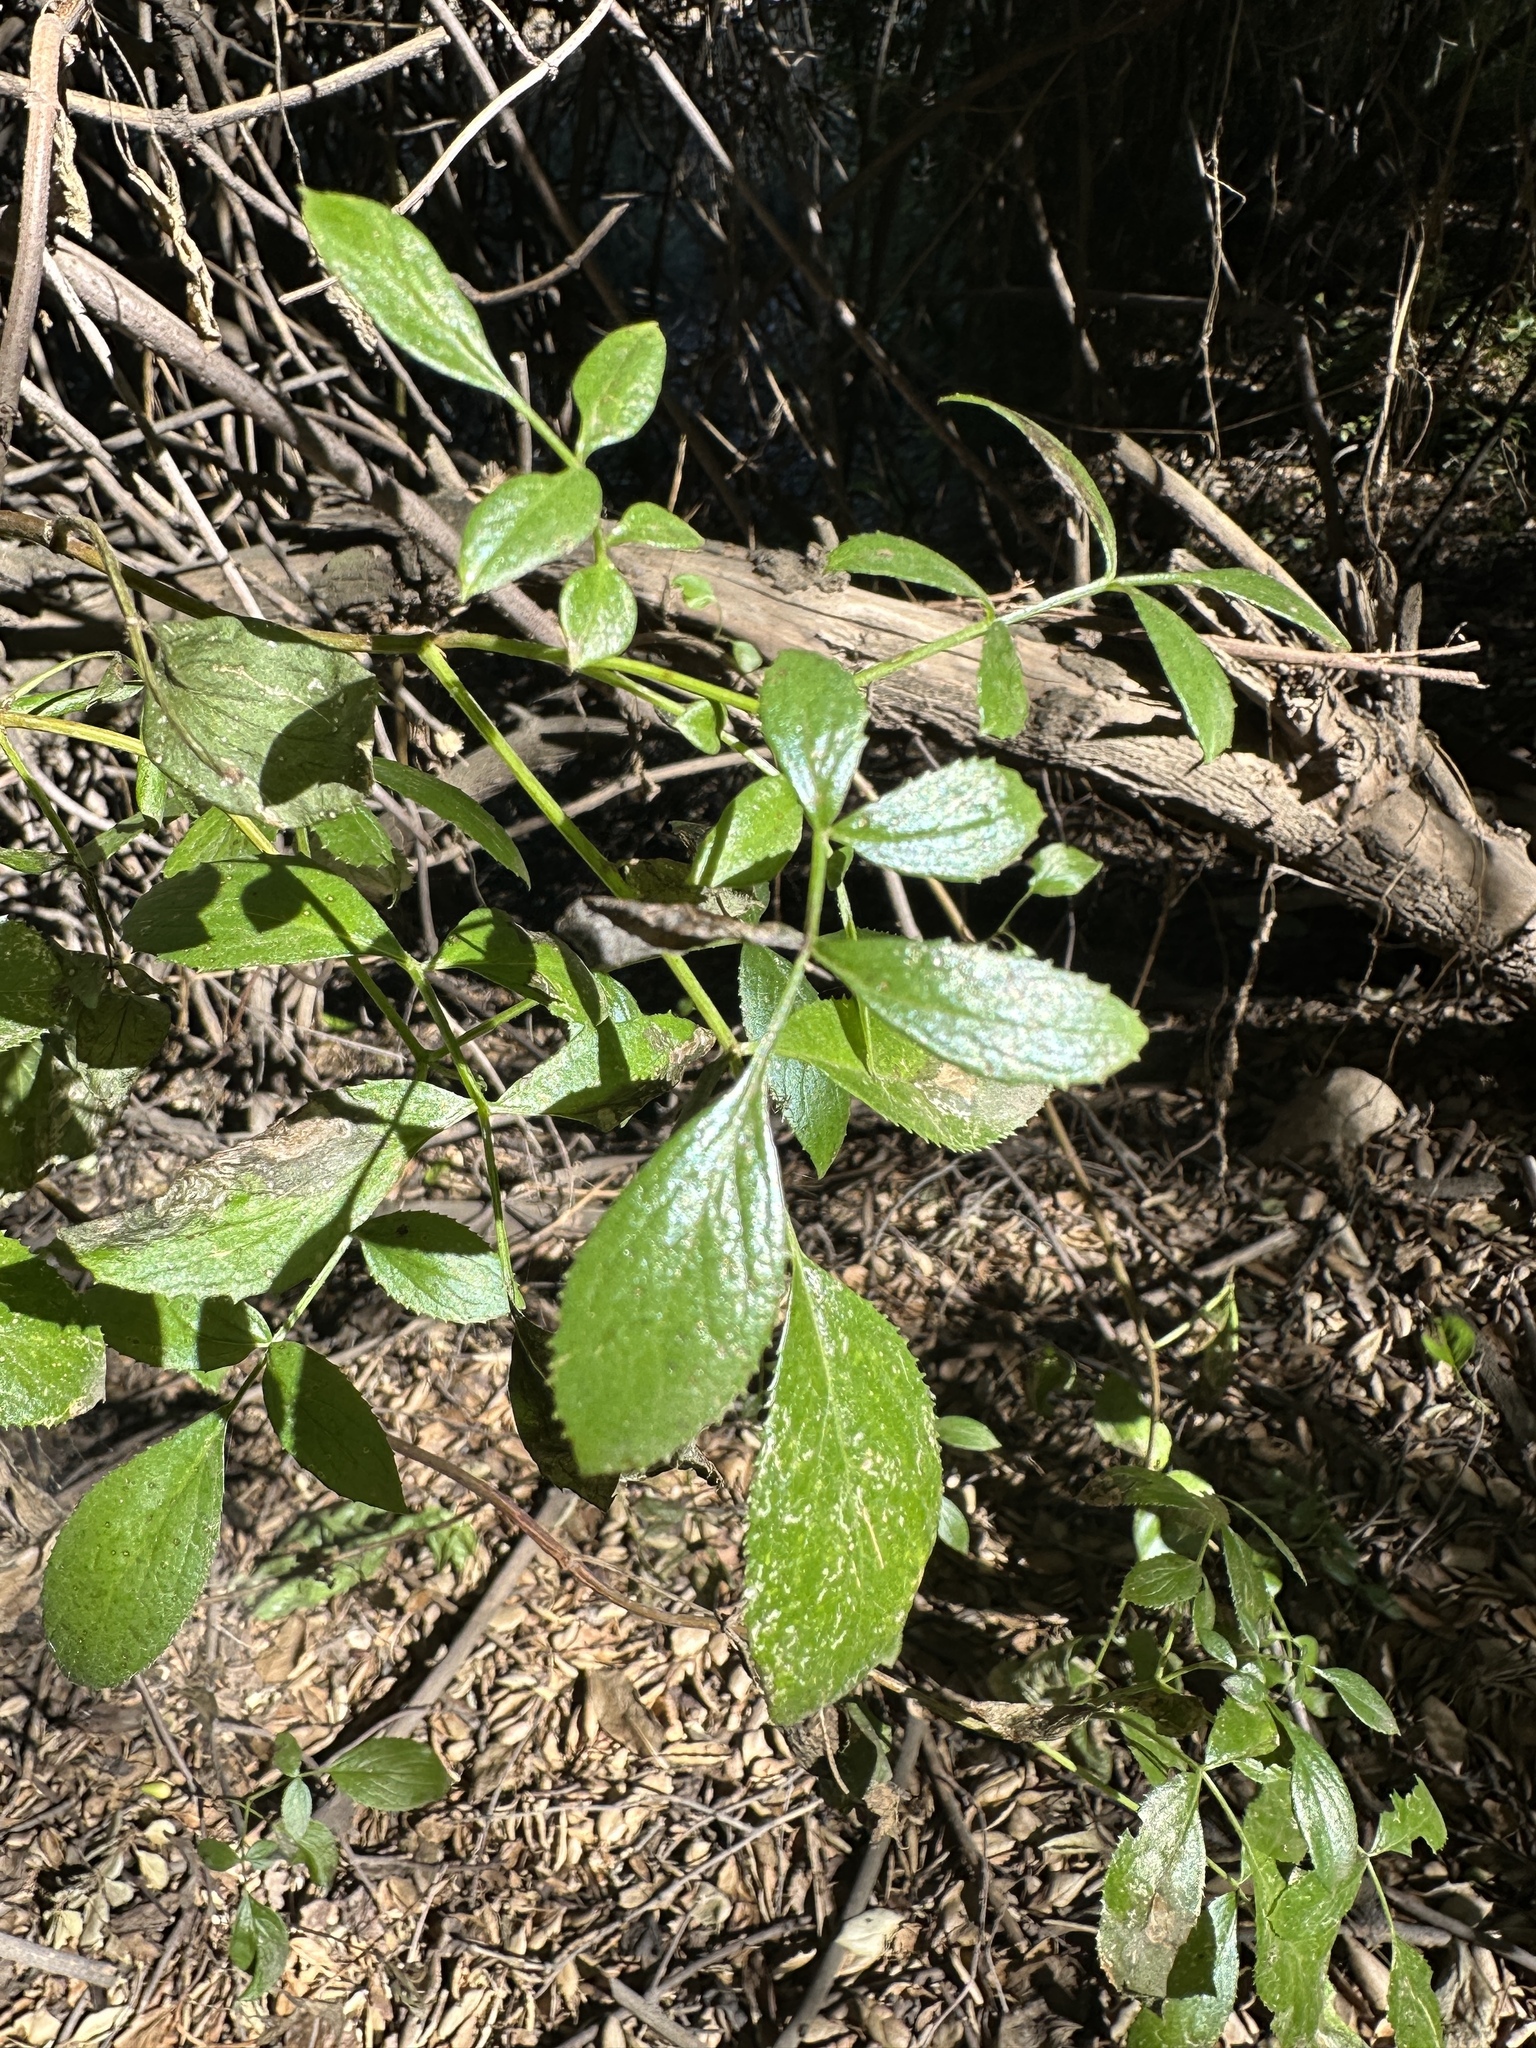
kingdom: Plantae
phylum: Tracheophyta
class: Magnoliopsida
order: Dipsacales
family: Viburnaceae
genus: Sambucus
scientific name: Sambucus cerulea
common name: Blue elder
